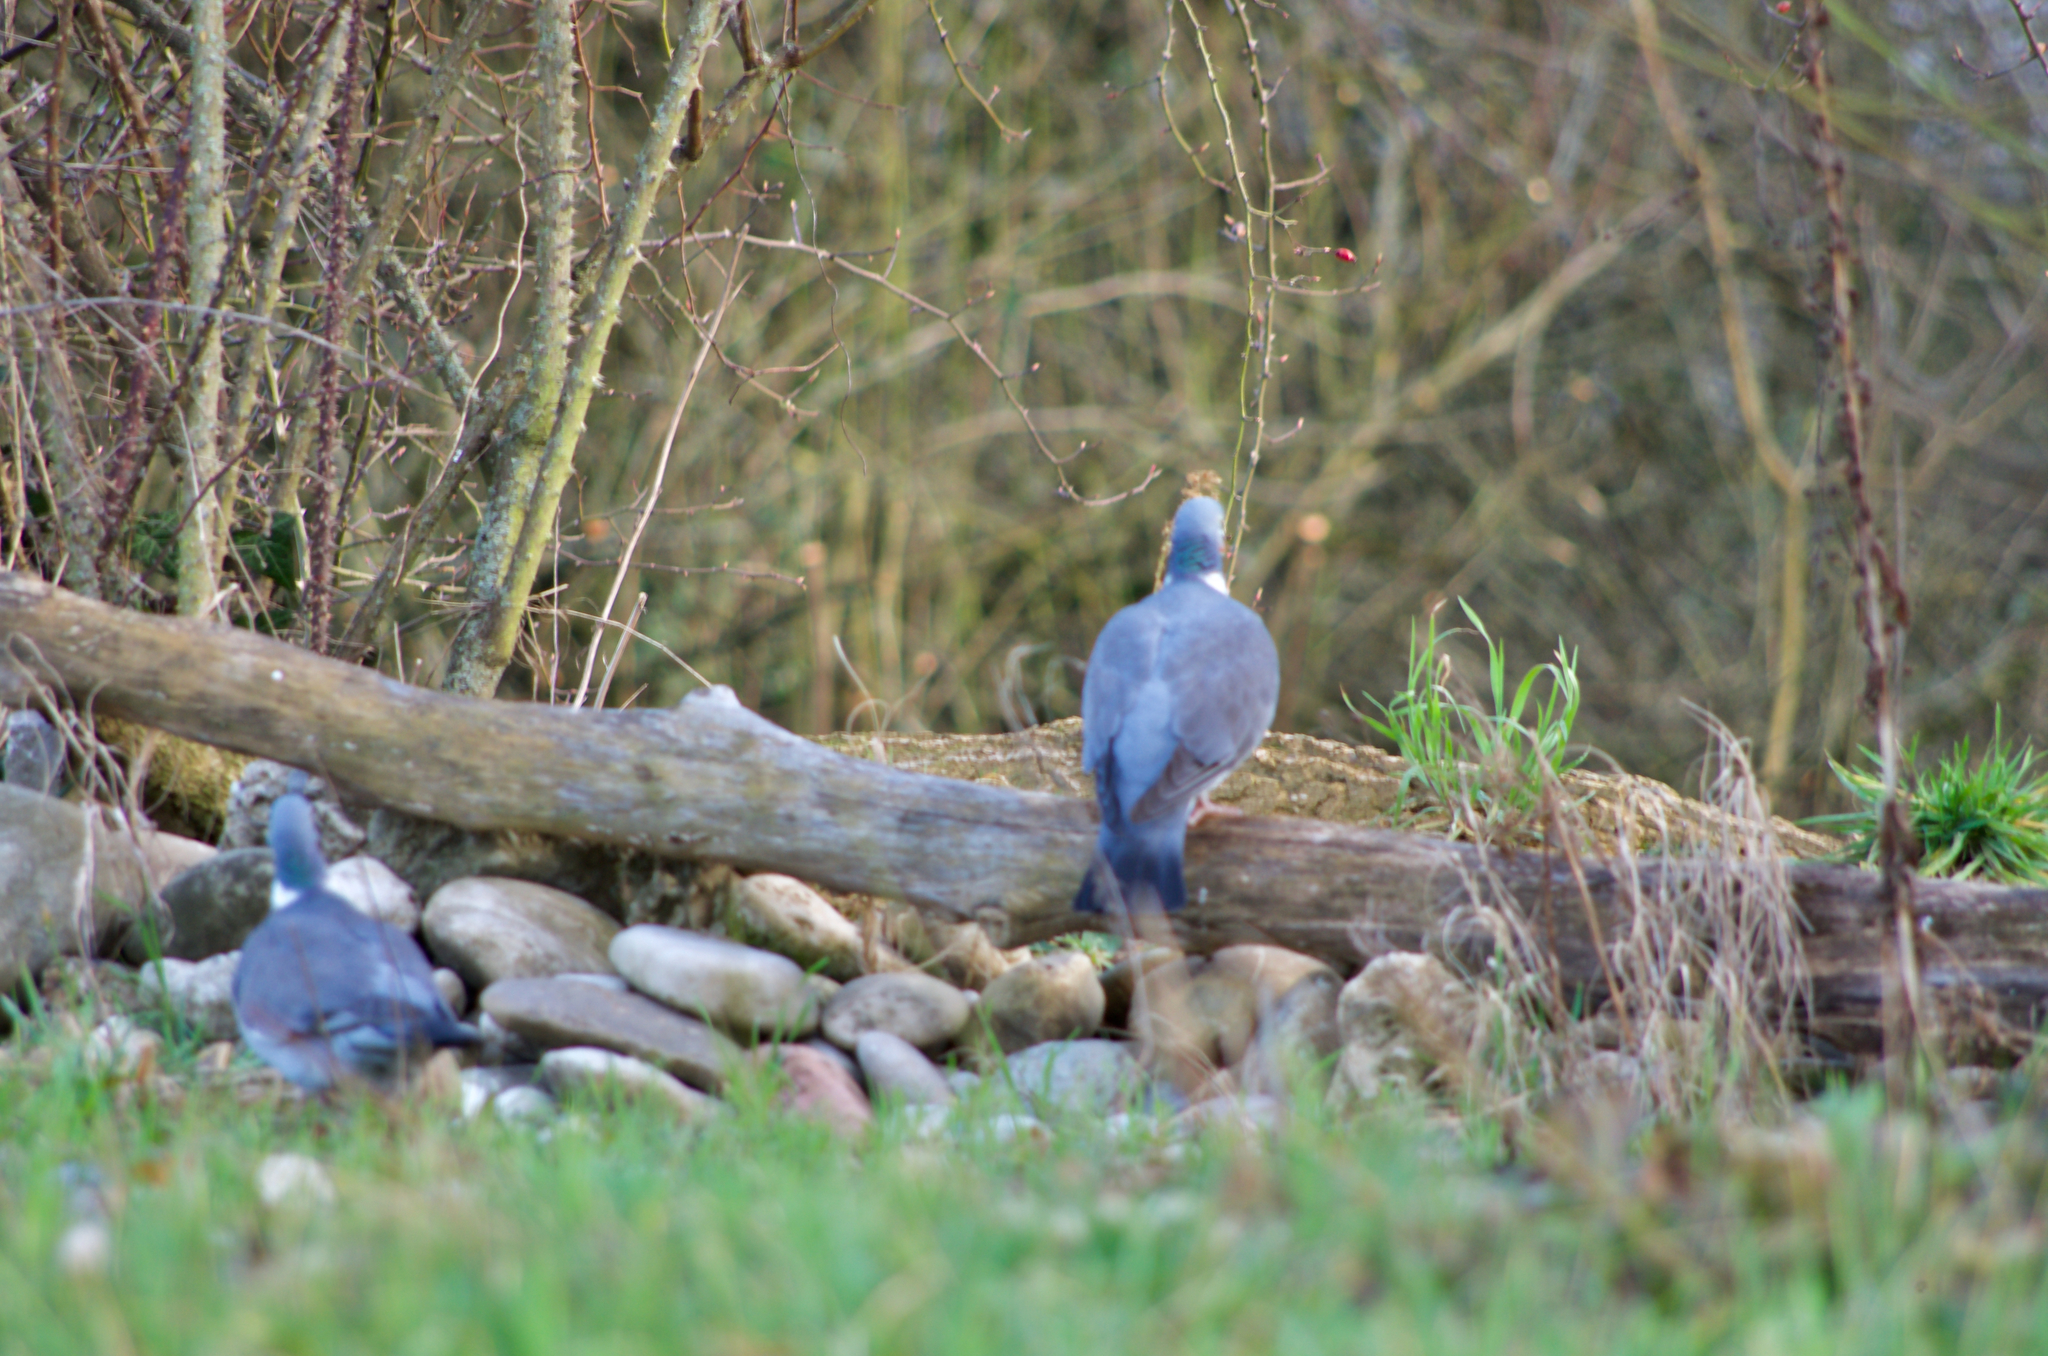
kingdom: Animalia
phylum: Chordata
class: Aves
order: Columbiformes
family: Columbidae
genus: Columba
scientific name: Columba palumbus
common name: Common wood pigeon
